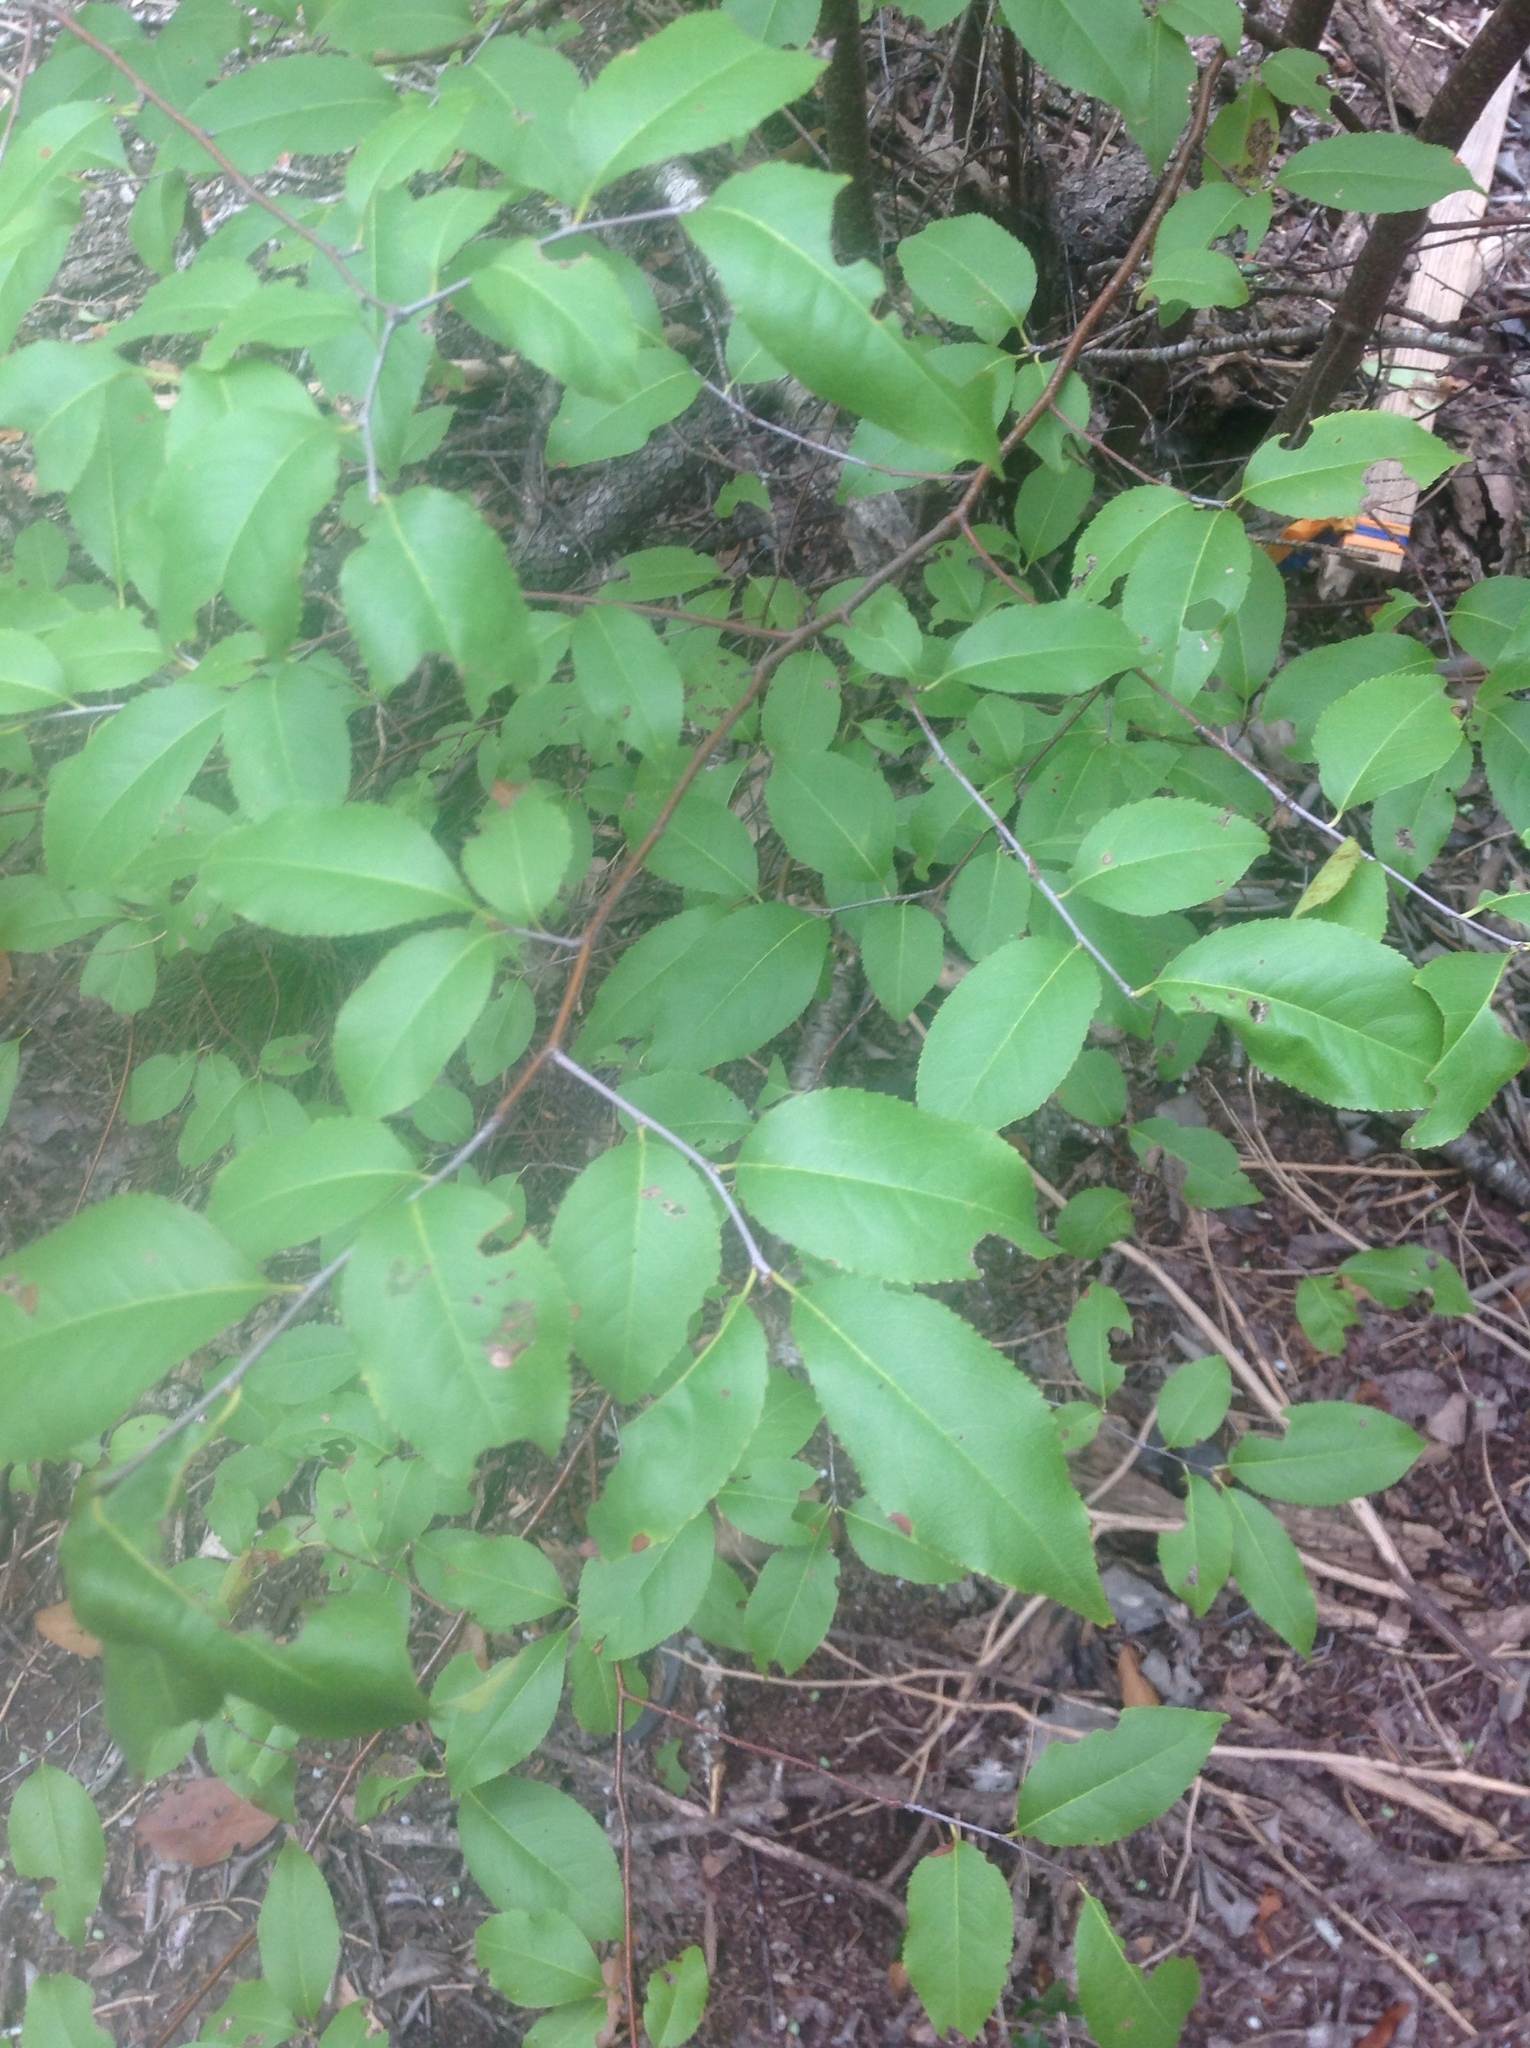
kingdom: Plantae
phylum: Tracheophyta
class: Magnoliopsida
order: Rosales
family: Rosaceae
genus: Prunus
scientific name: Prunus serotina
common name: Black cherry
